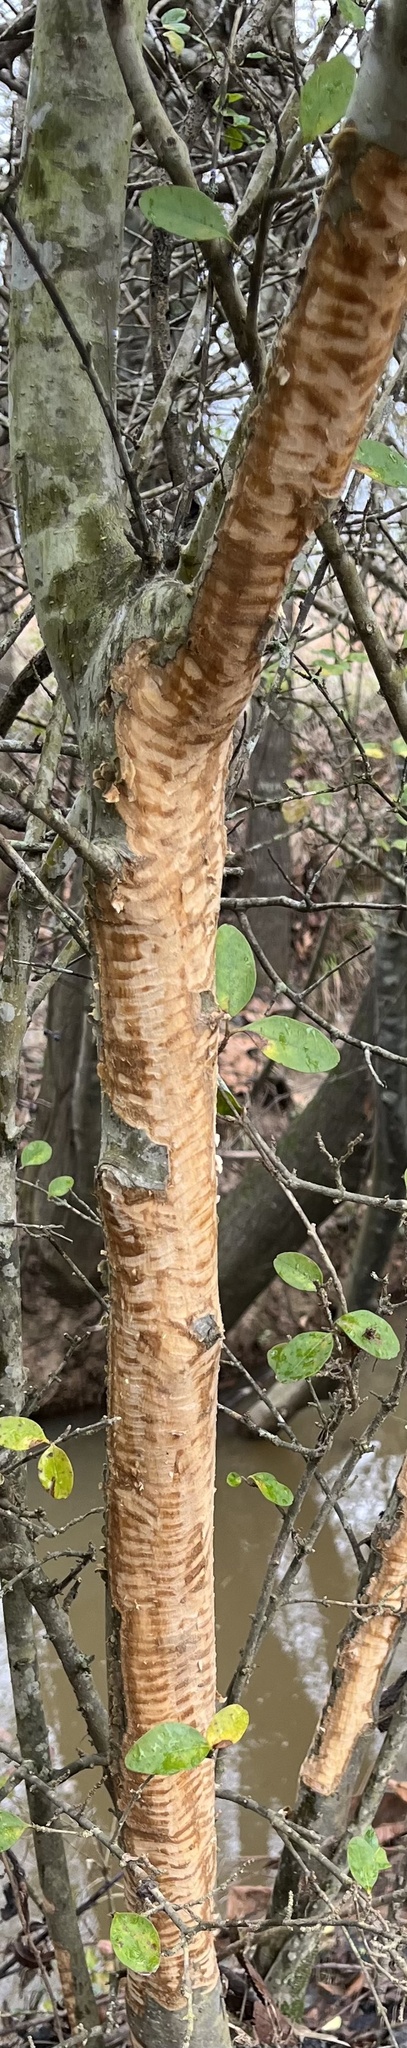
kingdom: Animalia
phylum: Chordata
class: Mammalia
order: Rodentia
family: Castoridae
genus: Castor
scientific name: Castor canadensis
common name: American beaver
